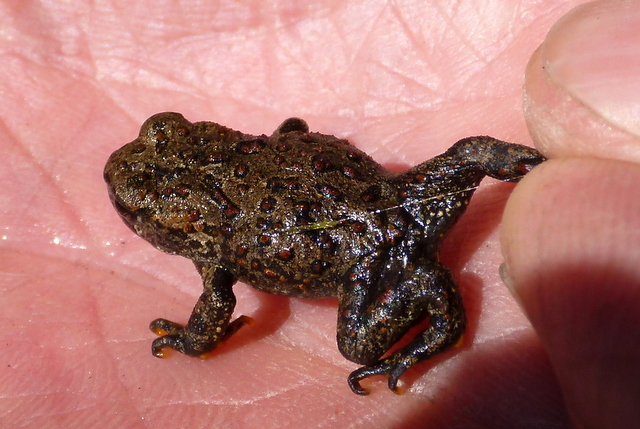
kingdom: Animalia
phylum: Chordata
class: Amphibia
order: Anura
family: Bufonidae
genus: Anaxyrus
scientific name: Anaxyrus boreas
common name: Western toad
